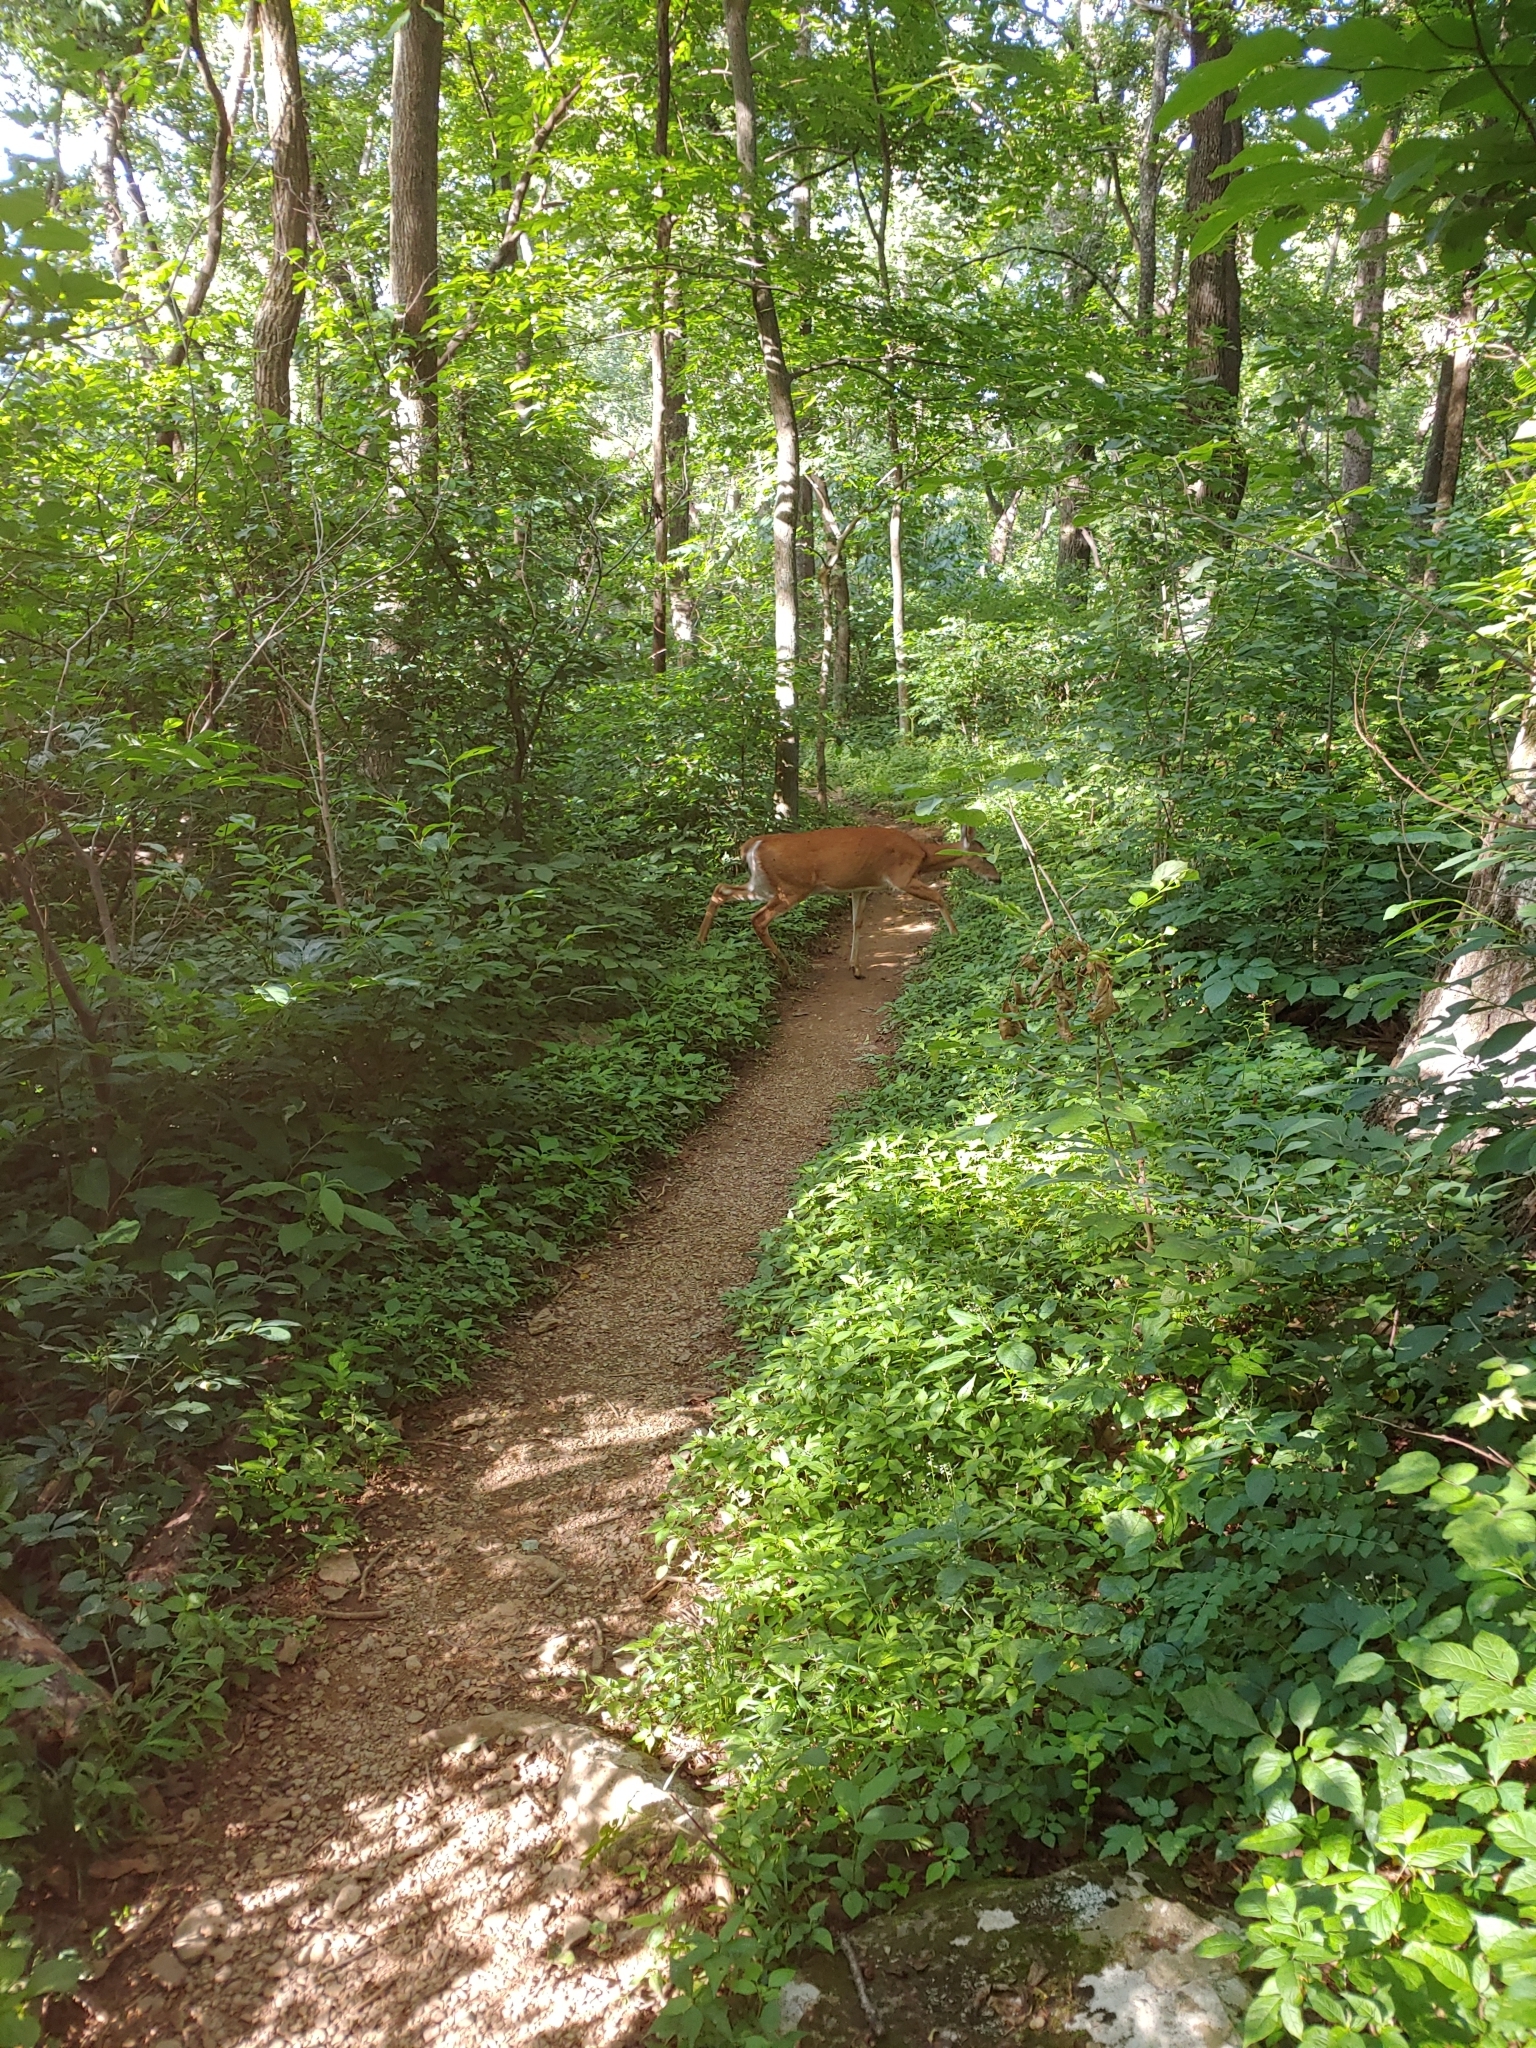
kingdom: Animalia
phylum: Chordata
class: Mammalia
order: Artiodactyla
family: Cervidae
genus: Odocoileus
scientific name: Odocoileus virginianus
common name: White-tailed deer
